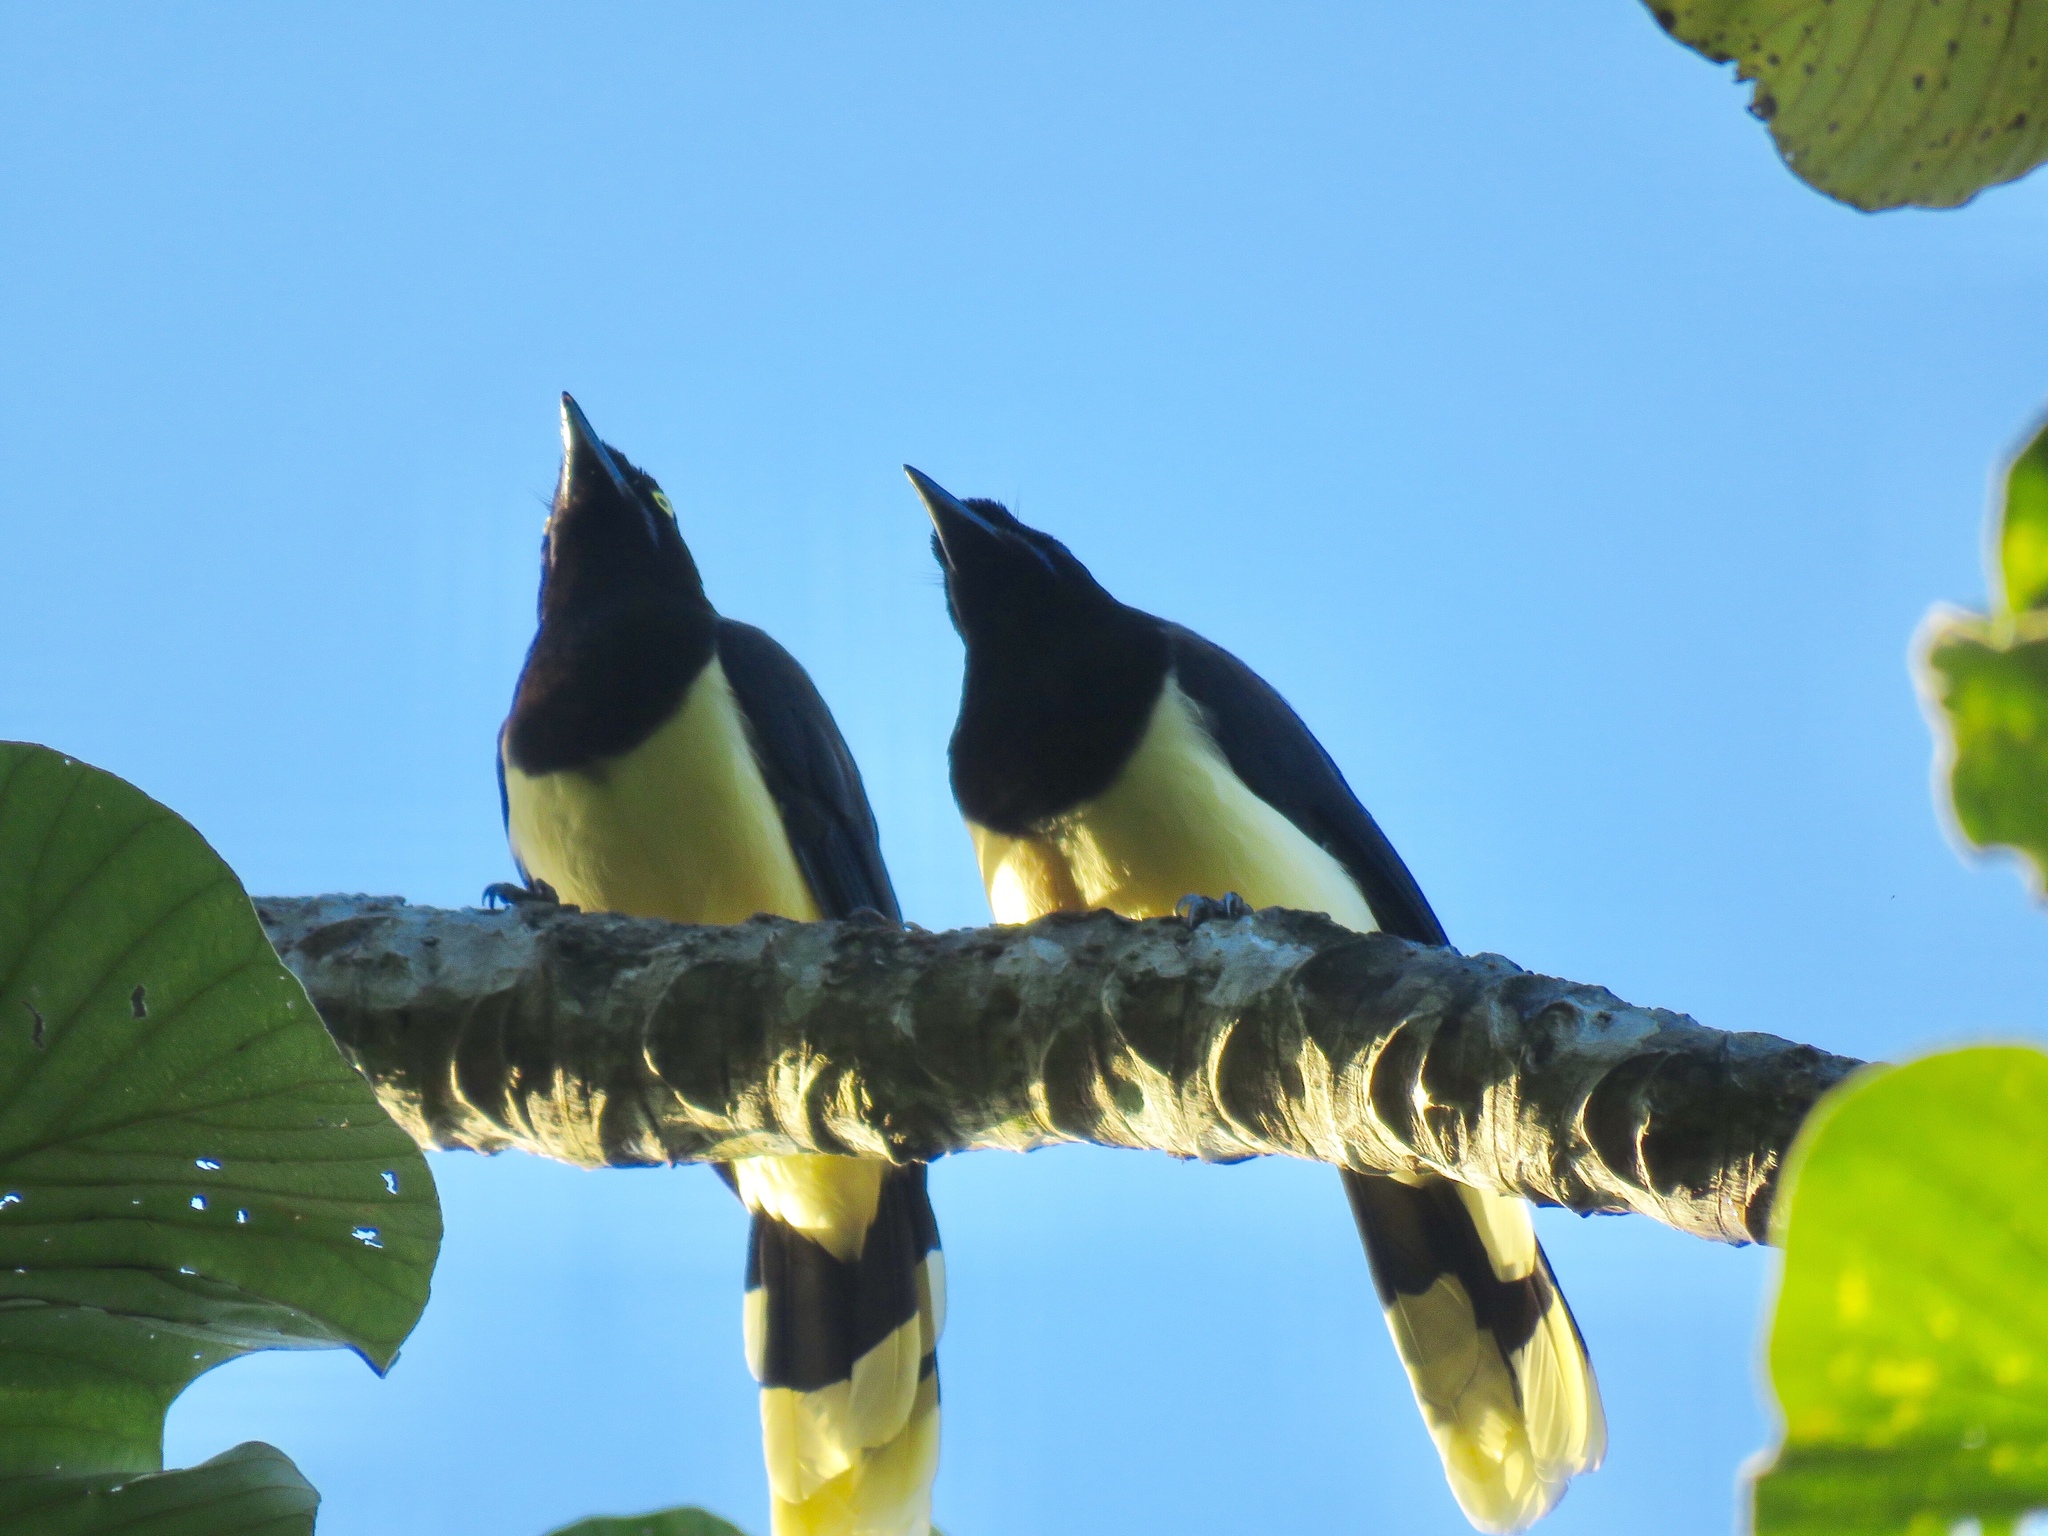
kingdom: Animalia
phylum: Chordata
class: Aves
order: Passeriformes
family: Corvidae
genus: Cyanocorax
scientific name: Cyanocorax affinis
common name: Black-chested jay
